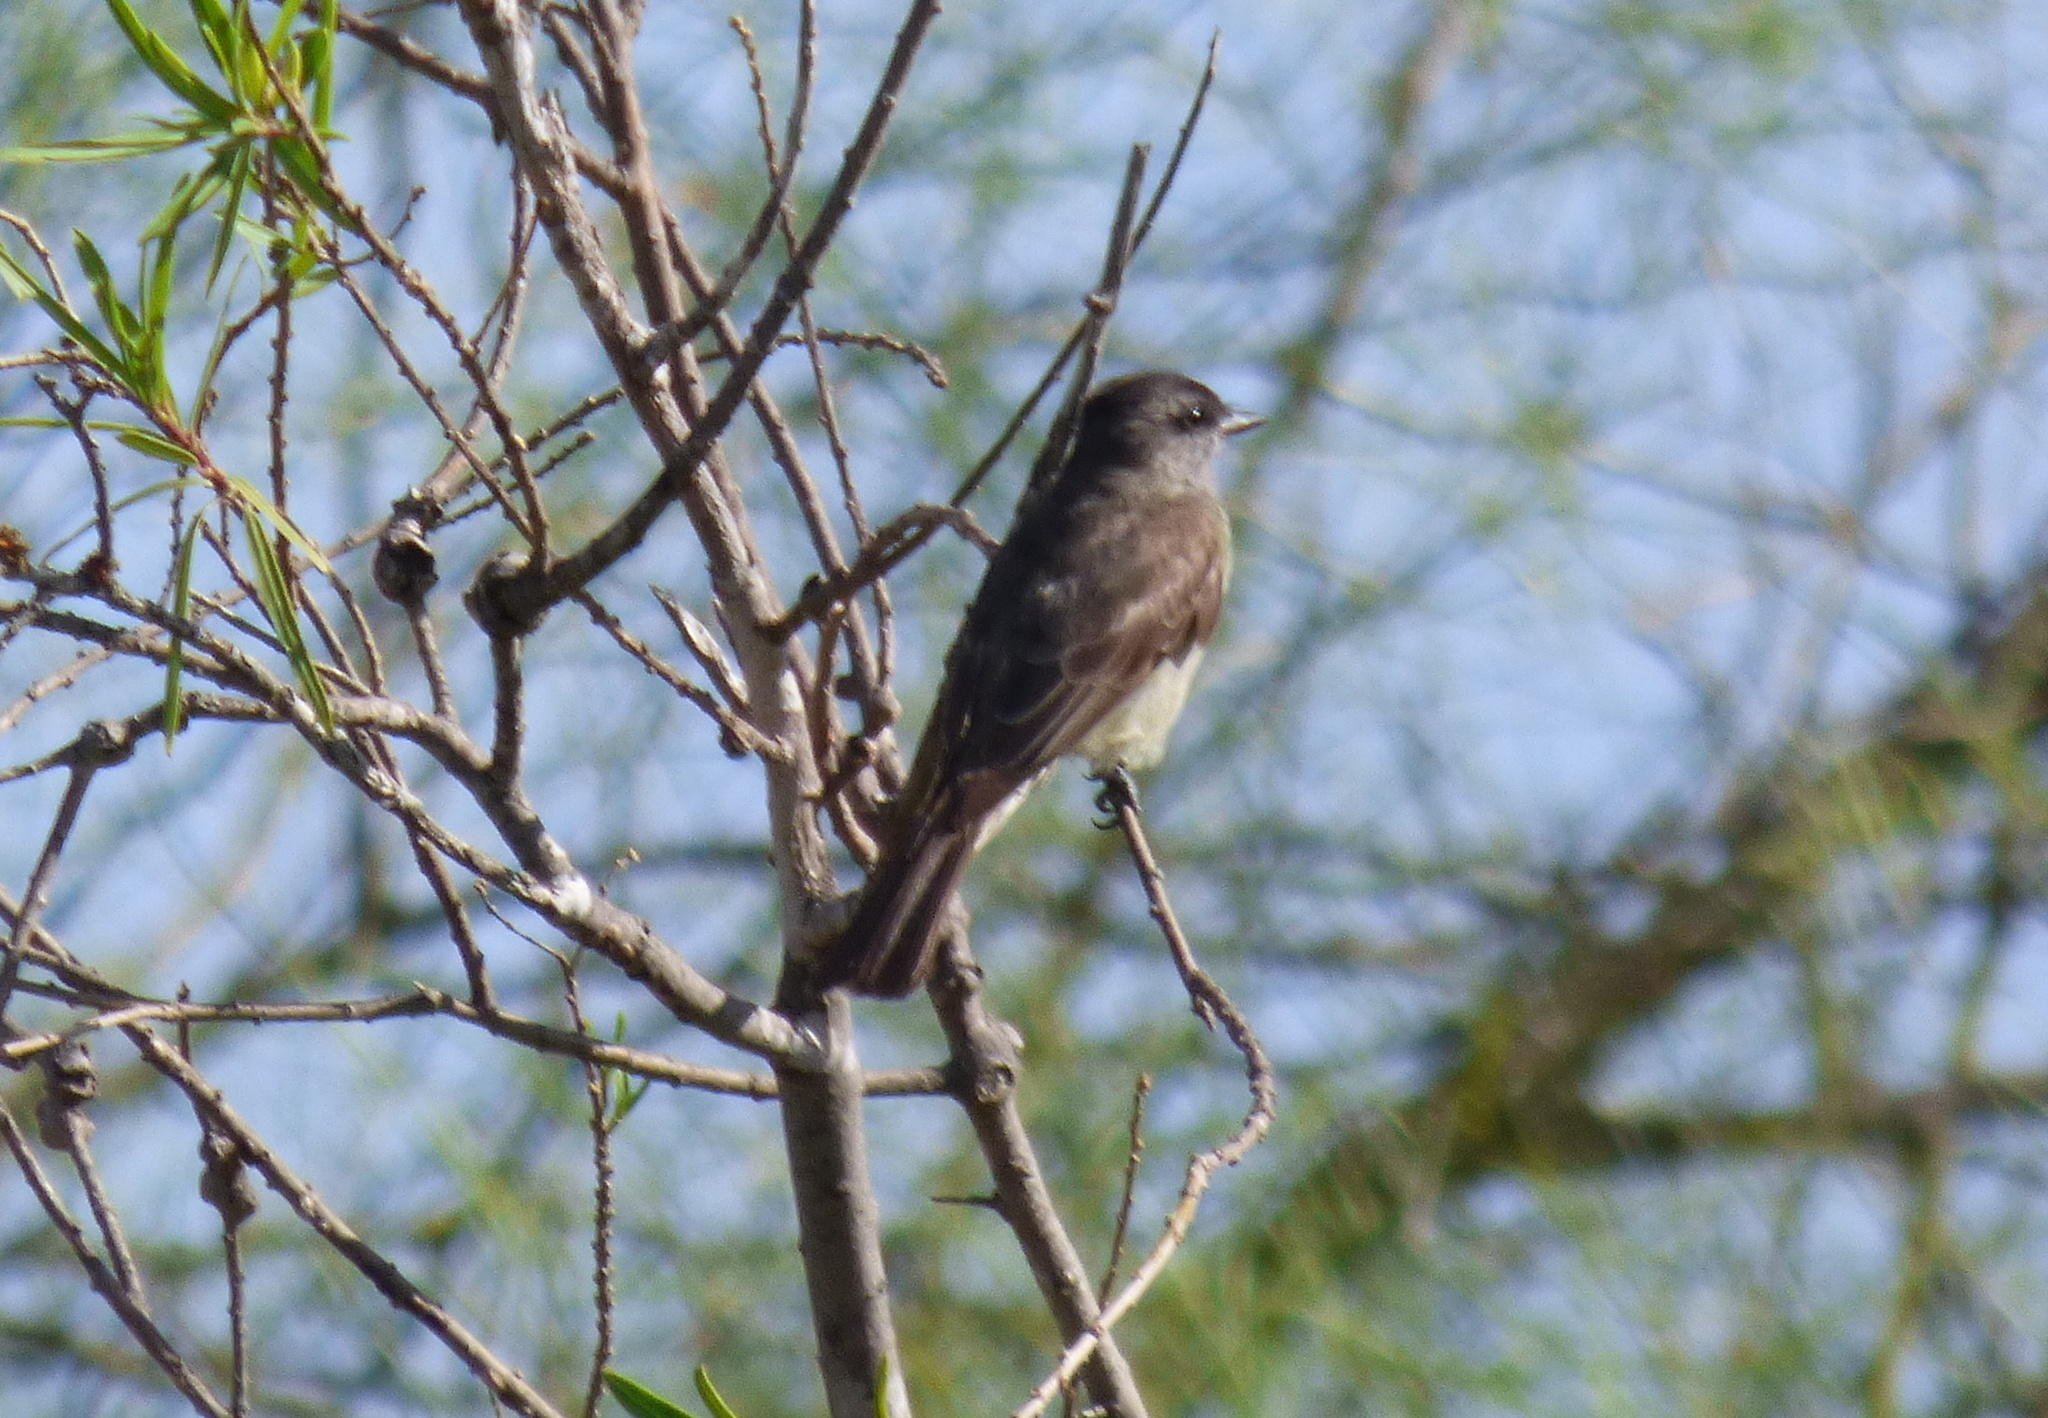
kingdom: Animalia
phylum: Chordata
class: Aves
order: Passeriformes
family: Tyrannidae
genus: Empidonomus
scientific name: Empidonomus aurantioatrocristatus
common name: Crowned slaty flycatcher
